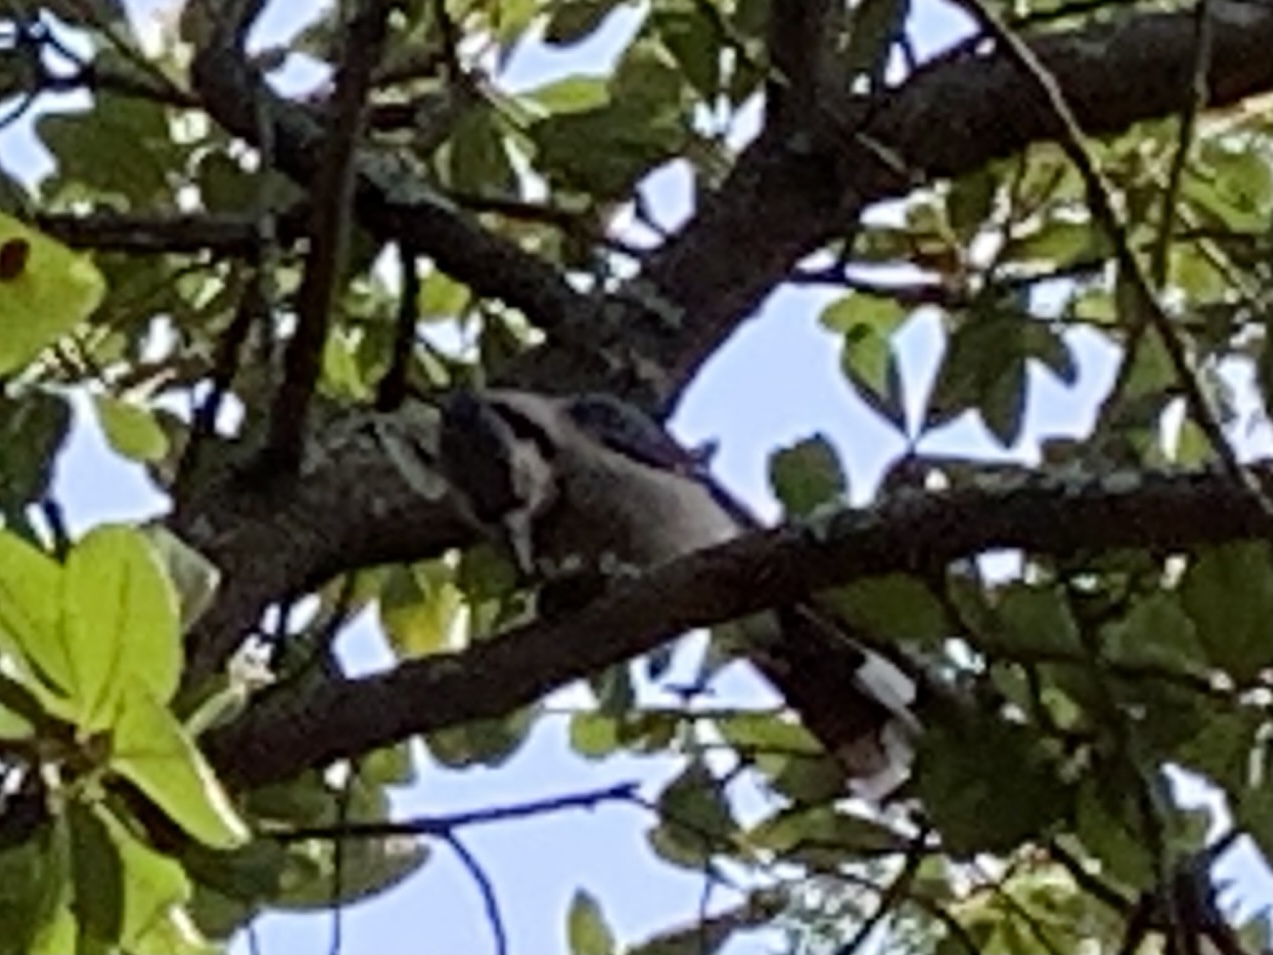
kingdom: Animalia
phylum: Chordata
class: Aves
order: Passeriformes
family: Corvidae
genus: Cyanocitta
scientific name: Cyanocitta cristata
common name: Blue jay
